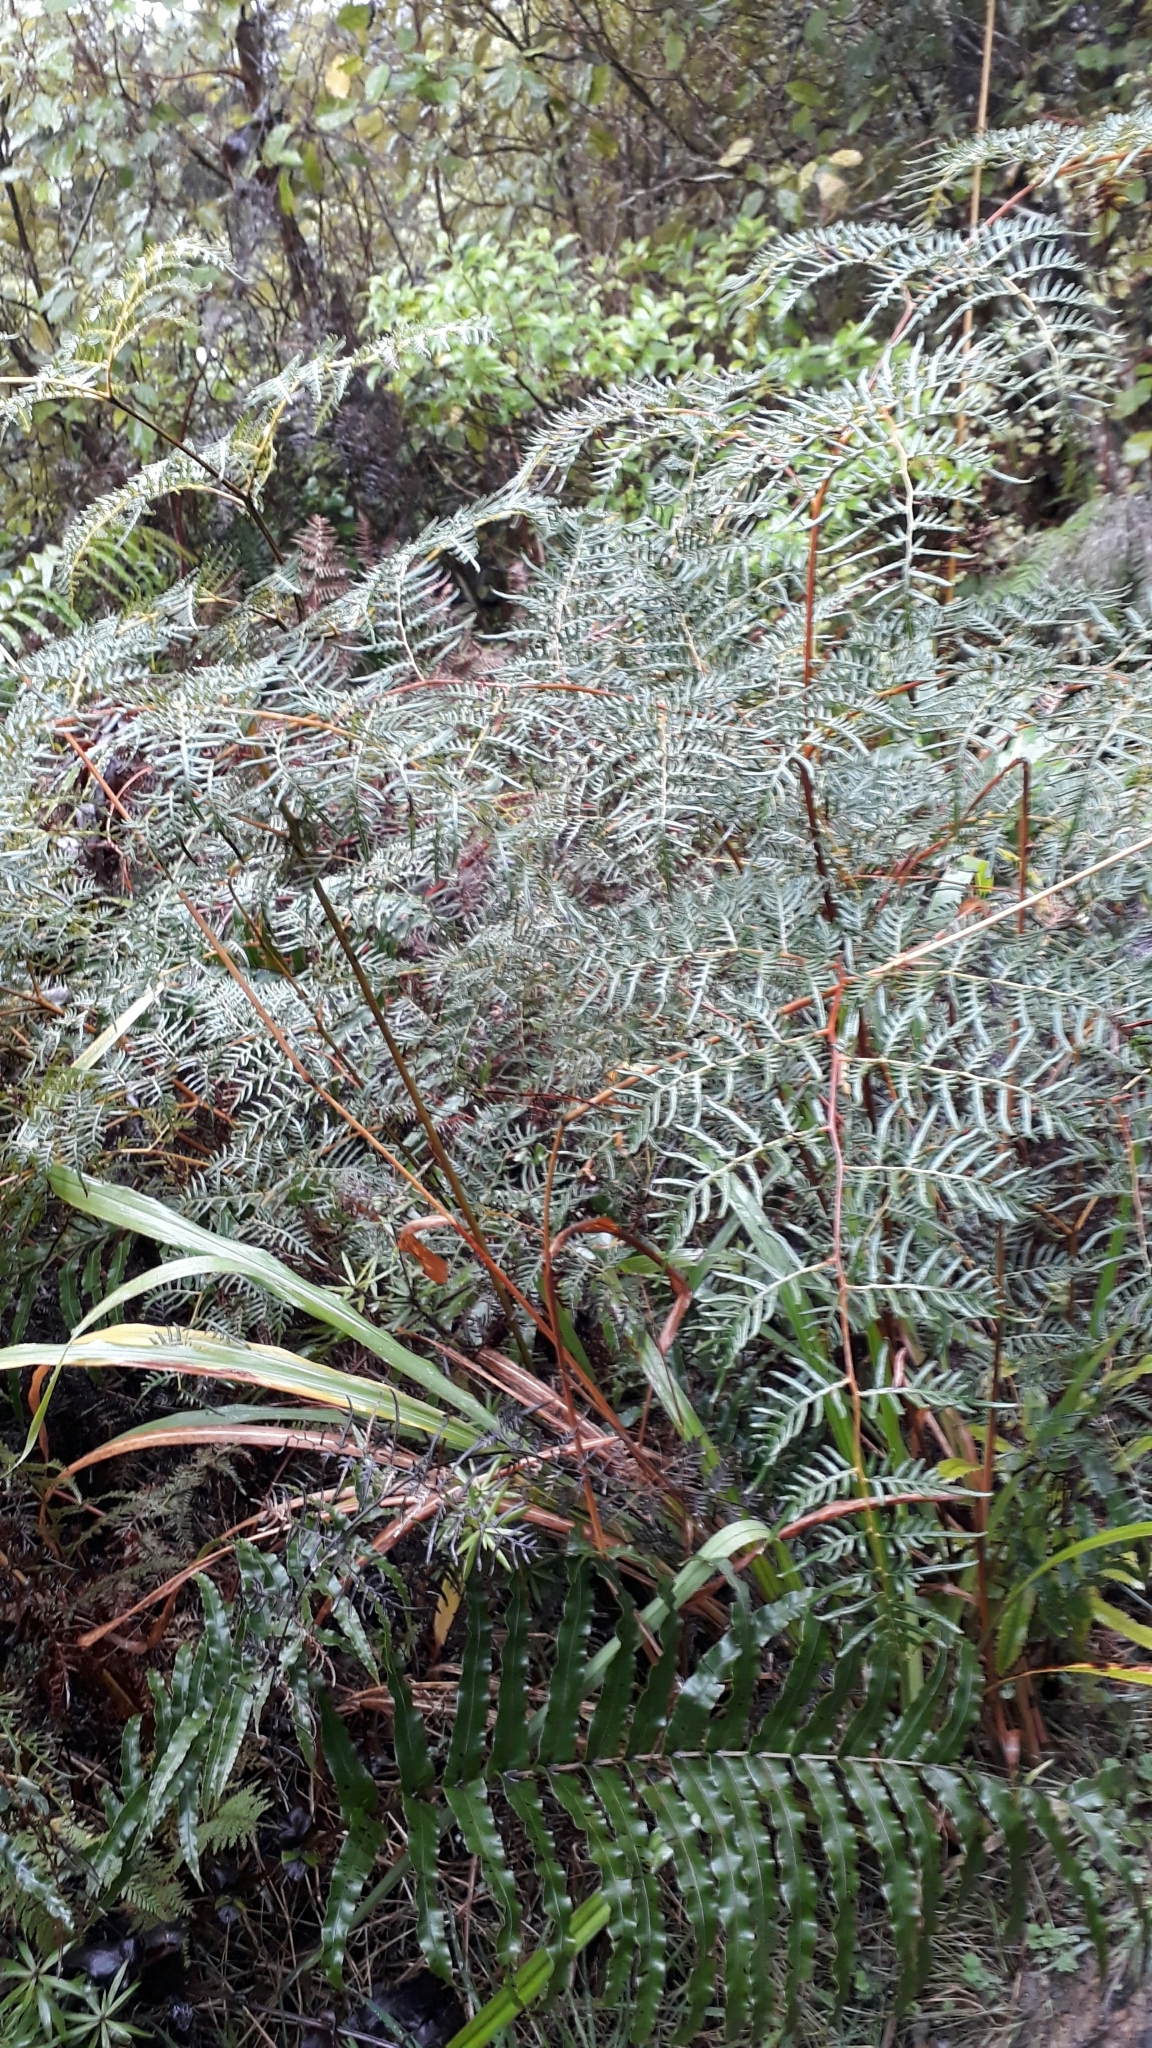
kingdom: Plantae
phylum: Tracheophyta
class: Polypodiopsida
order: Polypodiales
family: Dennstaedtiaceae
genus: Pteridium
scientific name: Pteridium esculentum
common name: Bracken fern
